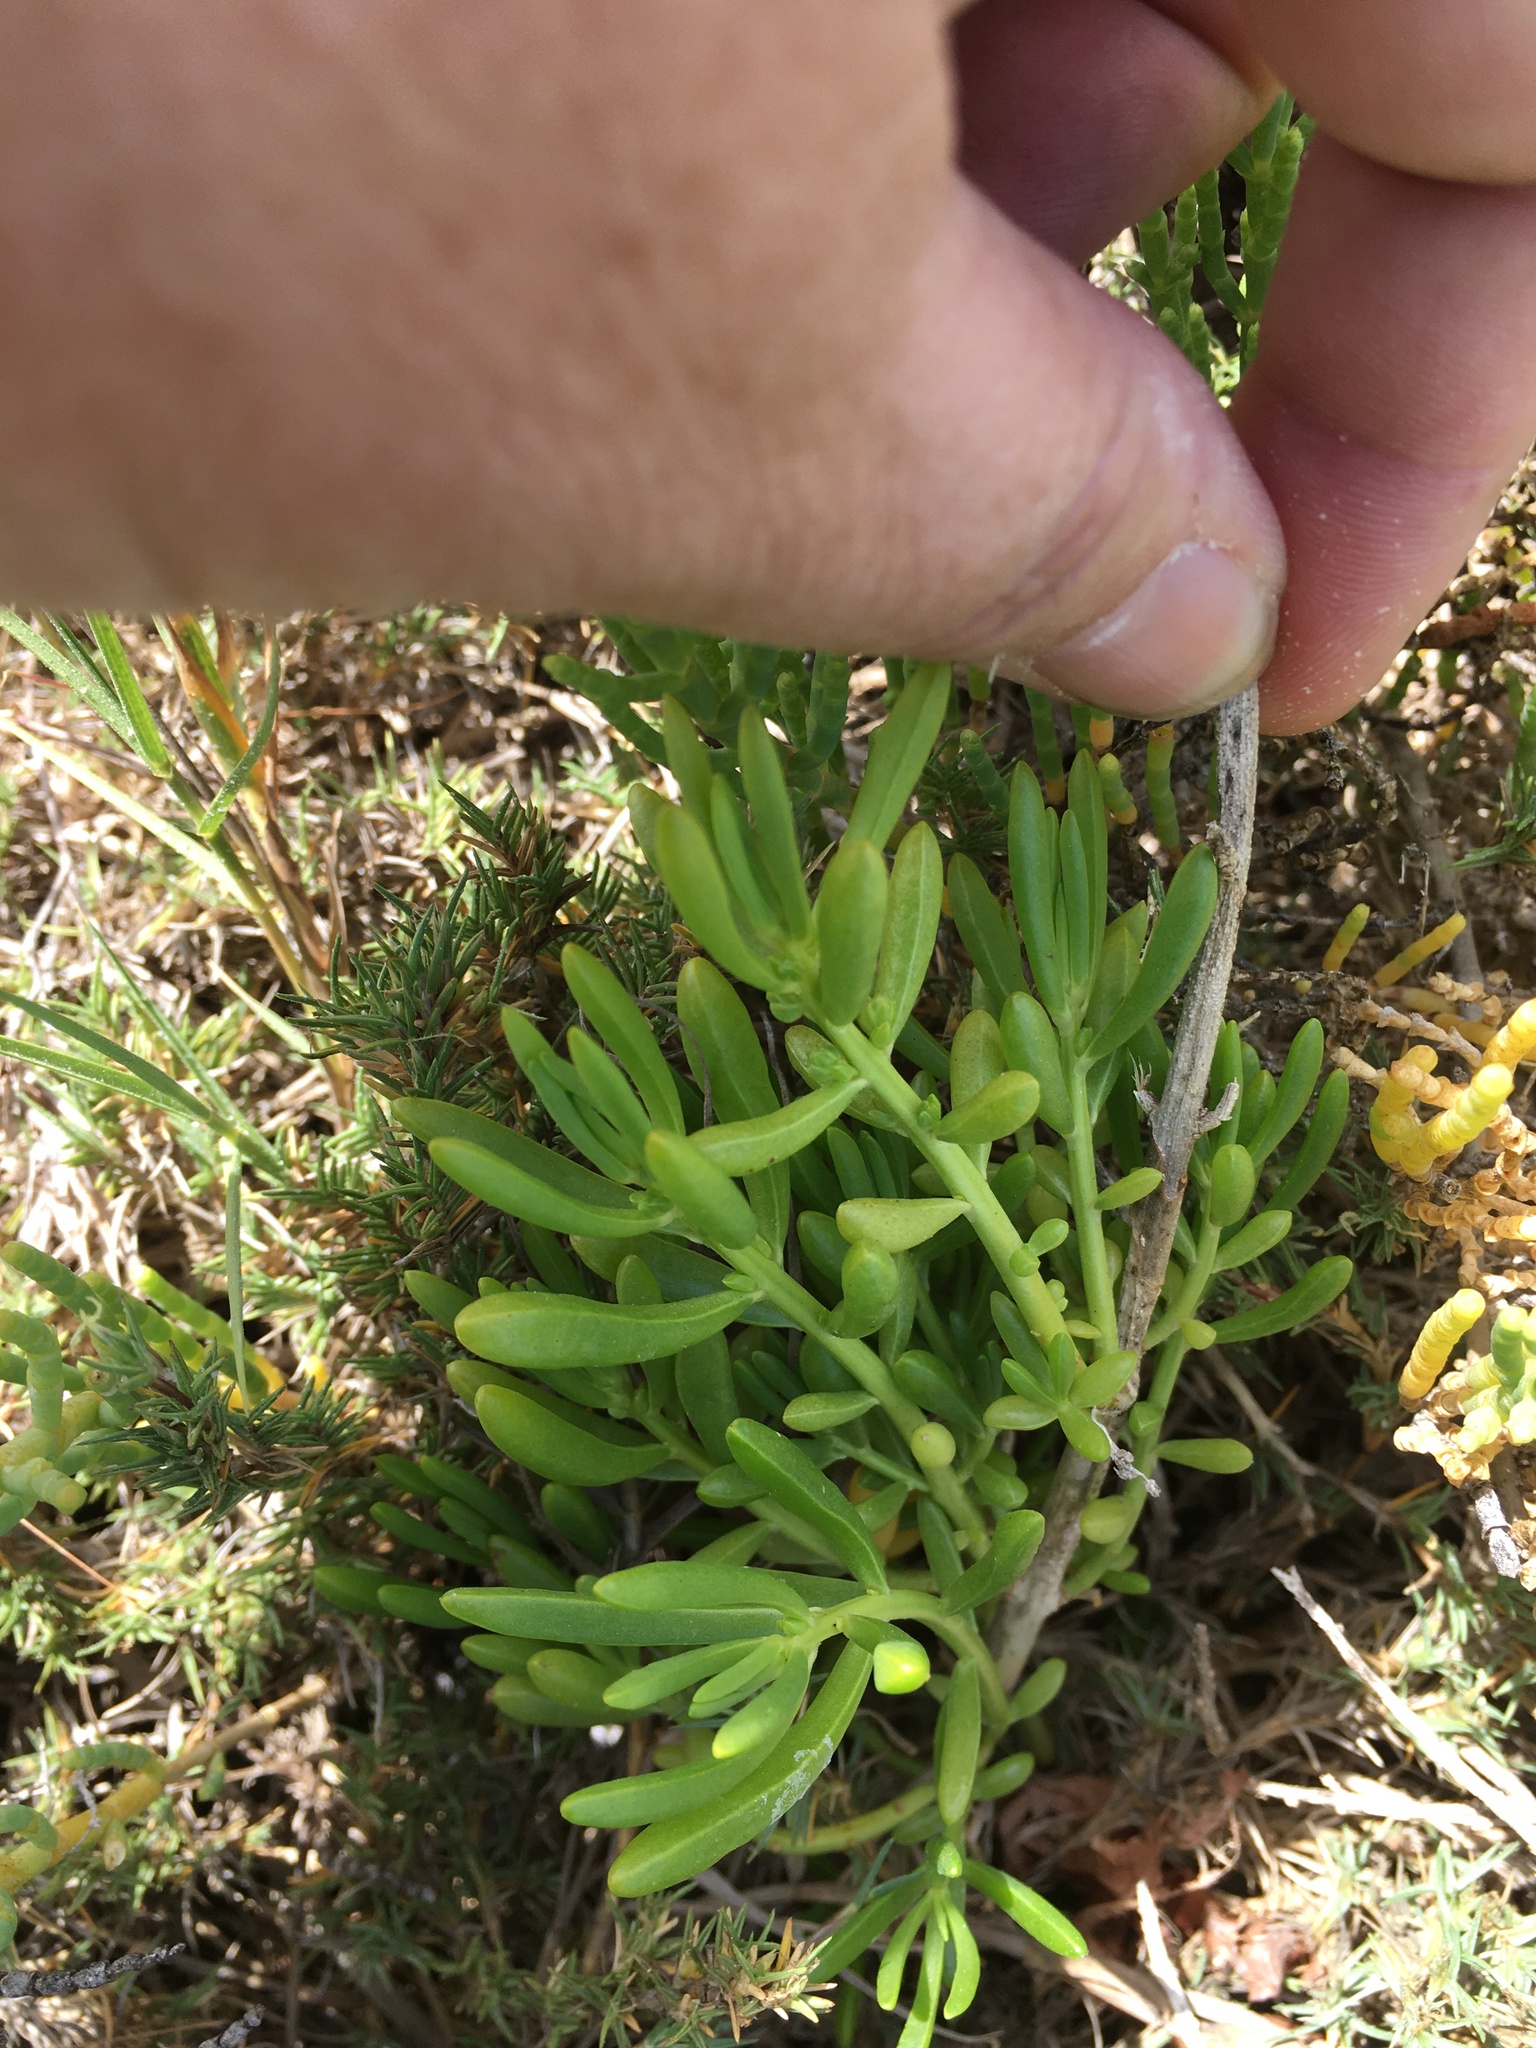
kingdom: Plantae
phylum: Tracheophyta
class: Magnoliopsida
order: Brassicales
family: Bataceae
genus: Batis
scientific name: Batis maritima
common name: Turtleweed
